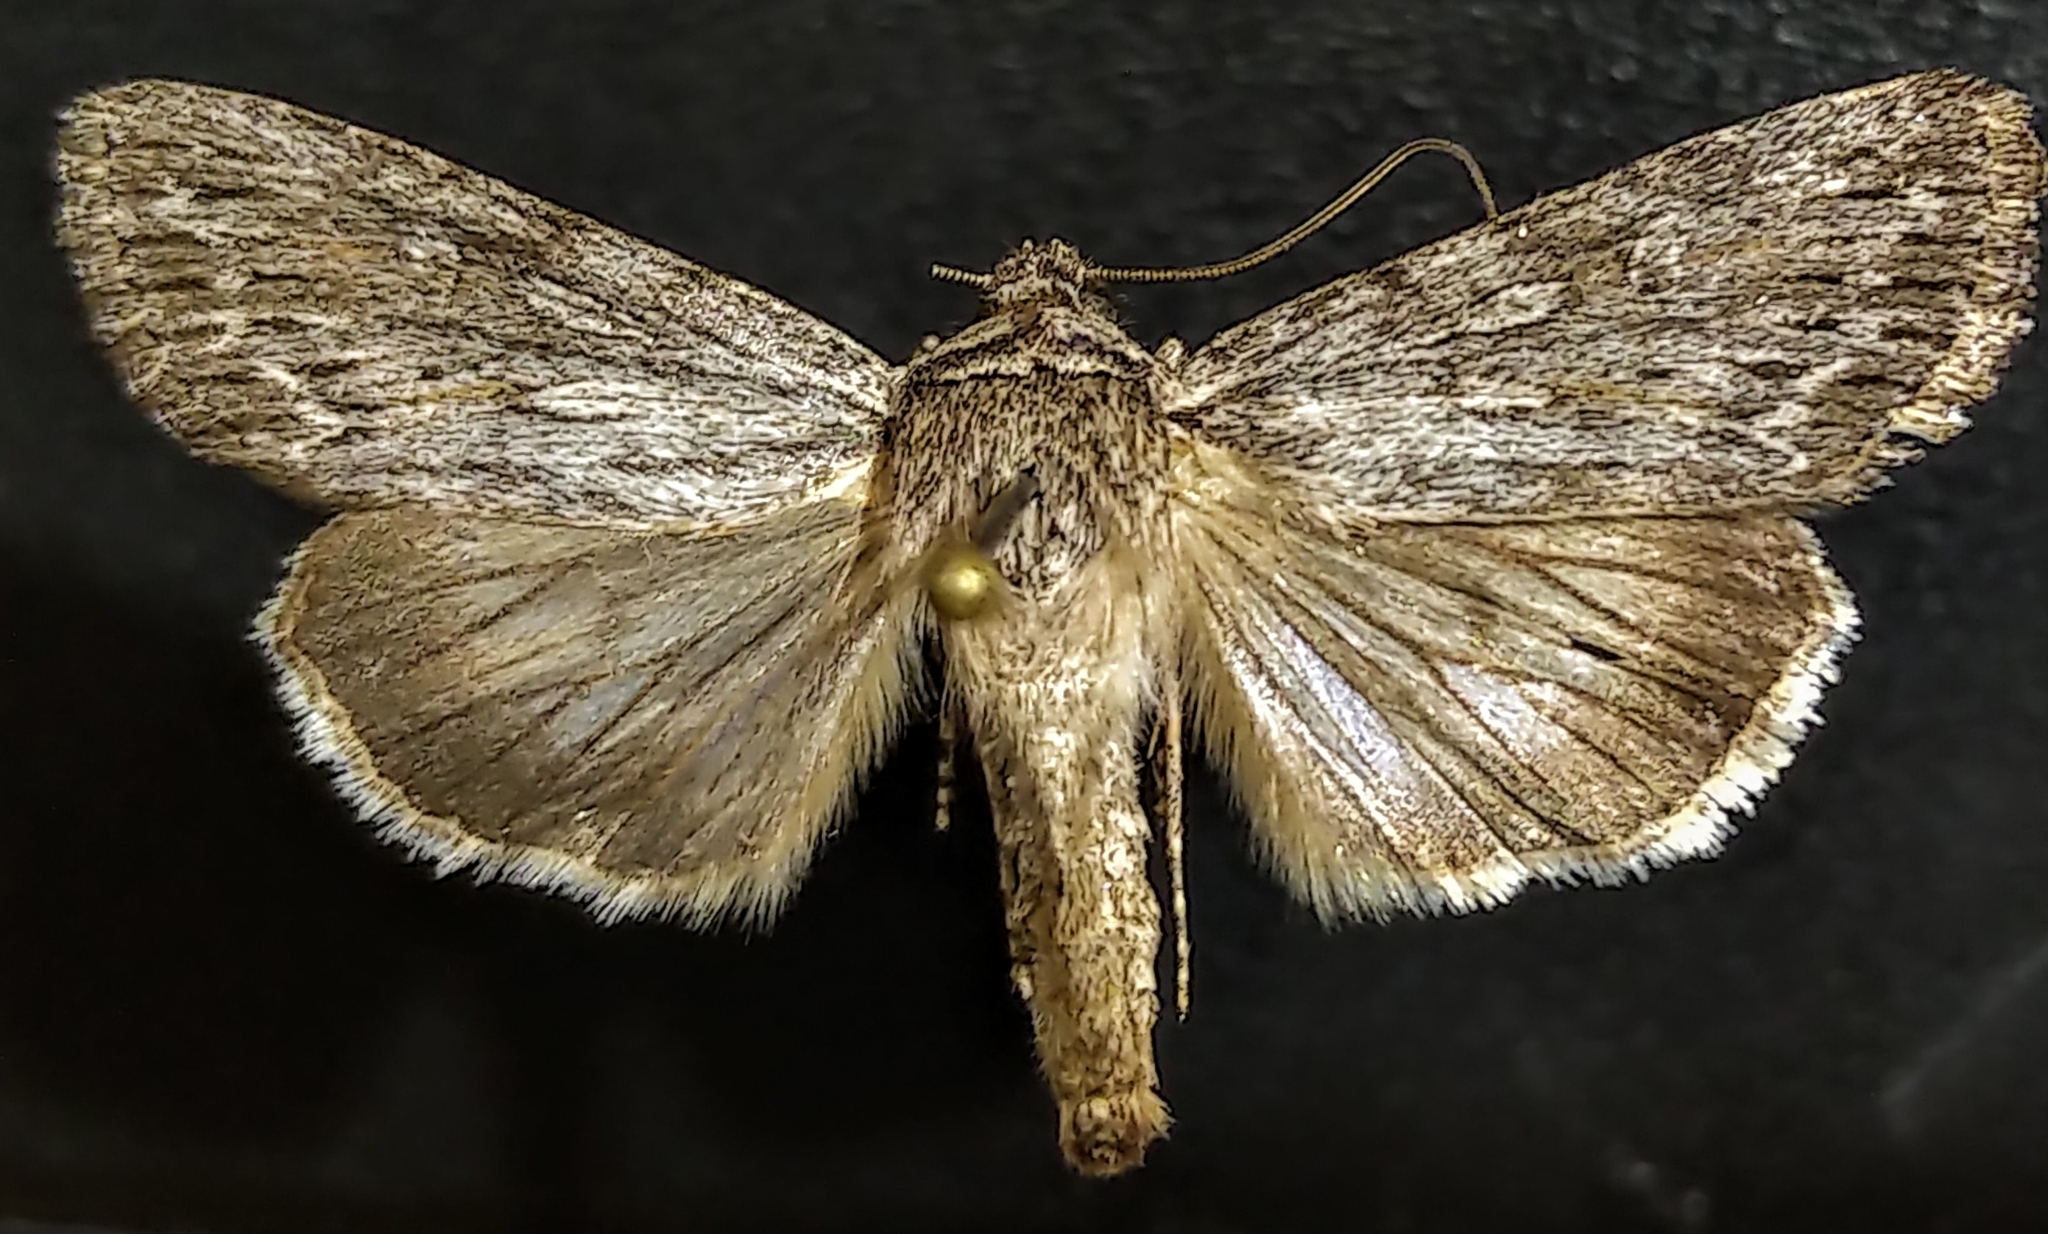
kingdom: Animalia
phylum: Arthropoda
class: Insecta
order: Lepidoptera
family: Noctuidae
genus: Sympistis
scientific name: Sympistis riparia
